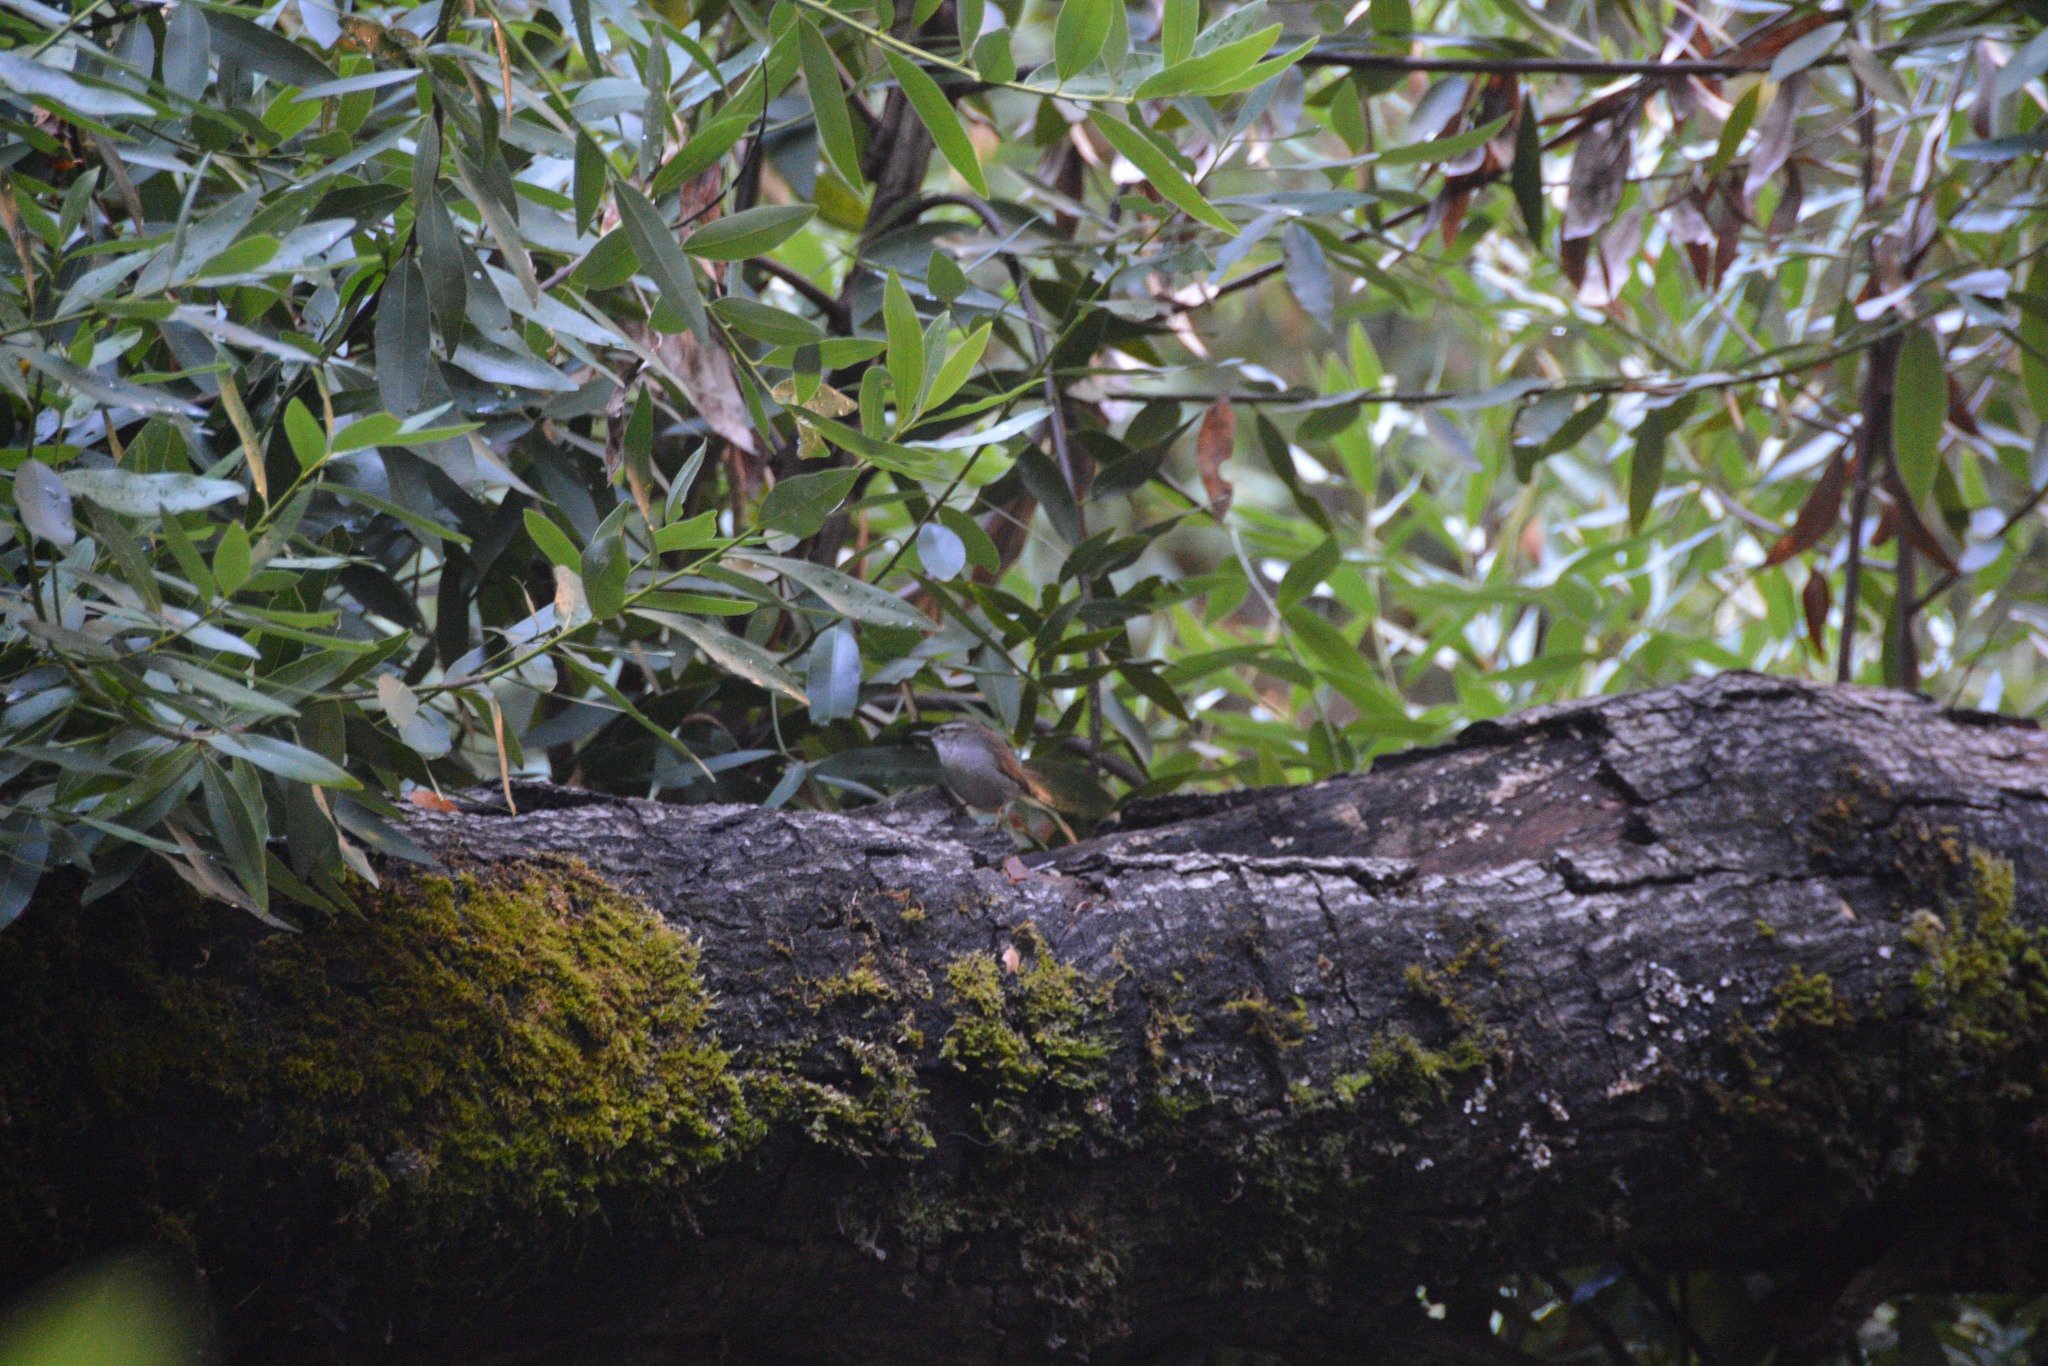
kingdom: Animalia
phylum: Chordata
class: Aves
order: Passeriformes
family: Troglodytidae
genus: Thryomanes
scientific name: Thryomanes bewickii
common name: Bewick's wren
